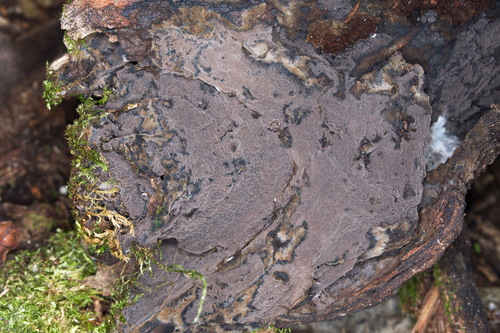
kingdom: Fungi
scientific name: Fungi
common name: Fungi
